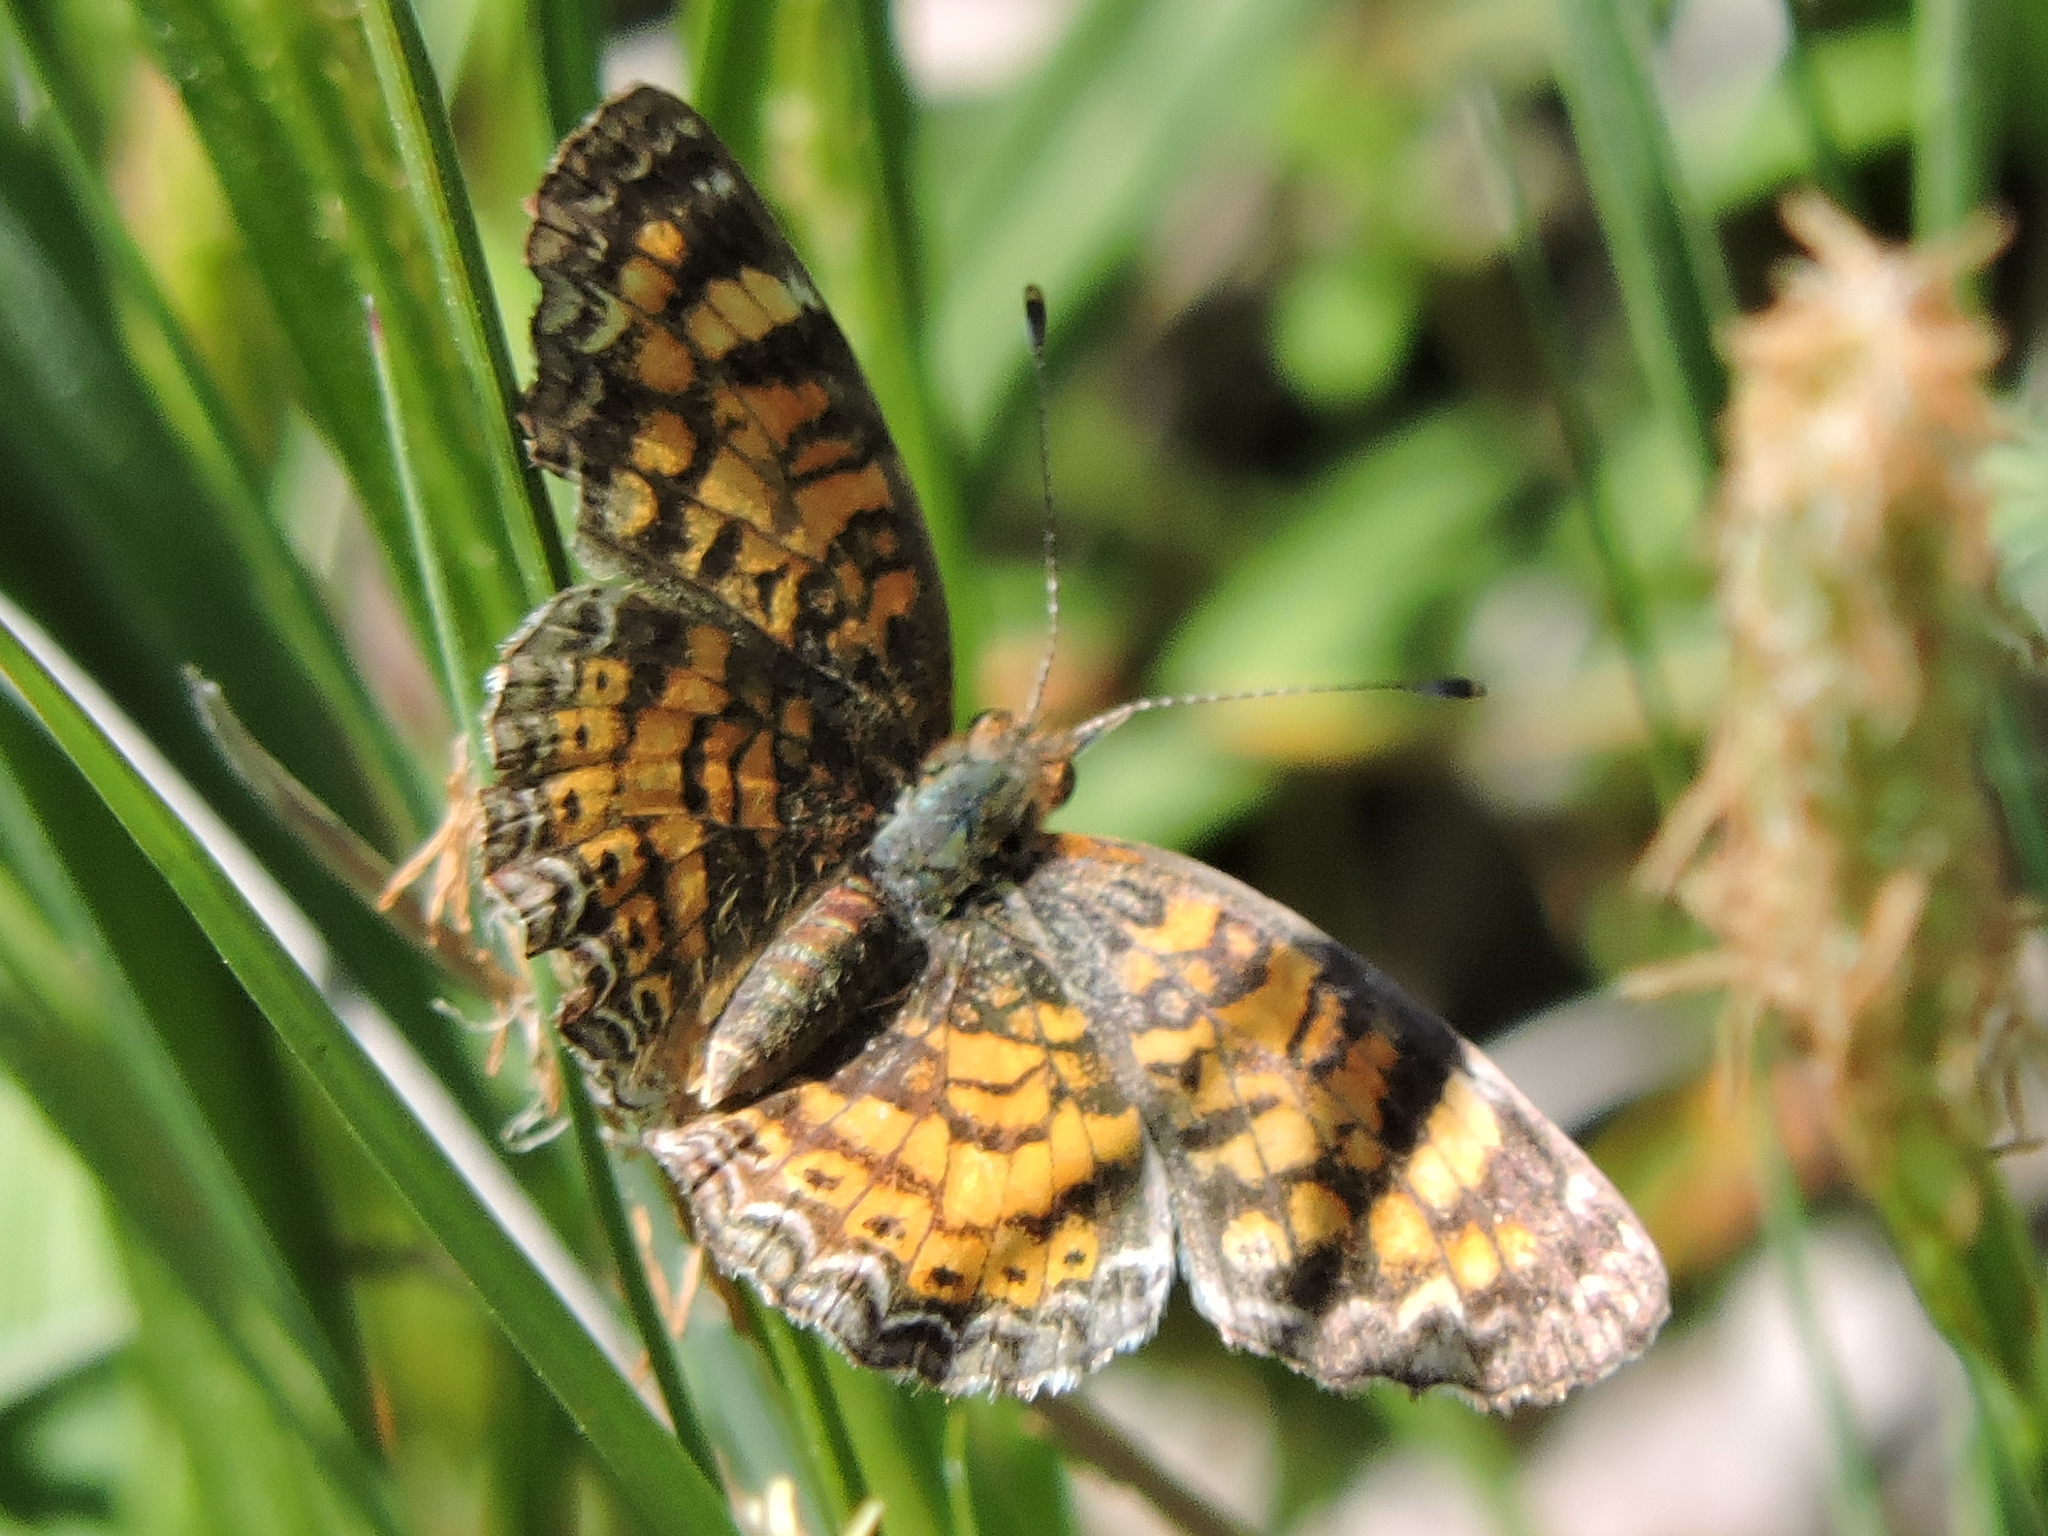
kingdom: Animalia
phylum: Arthropoda
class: Insecta
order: Lepidoptera
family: Nymphalidae
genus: Phyciodes
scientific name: Phyciodes tharos
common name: Pearl crescent
